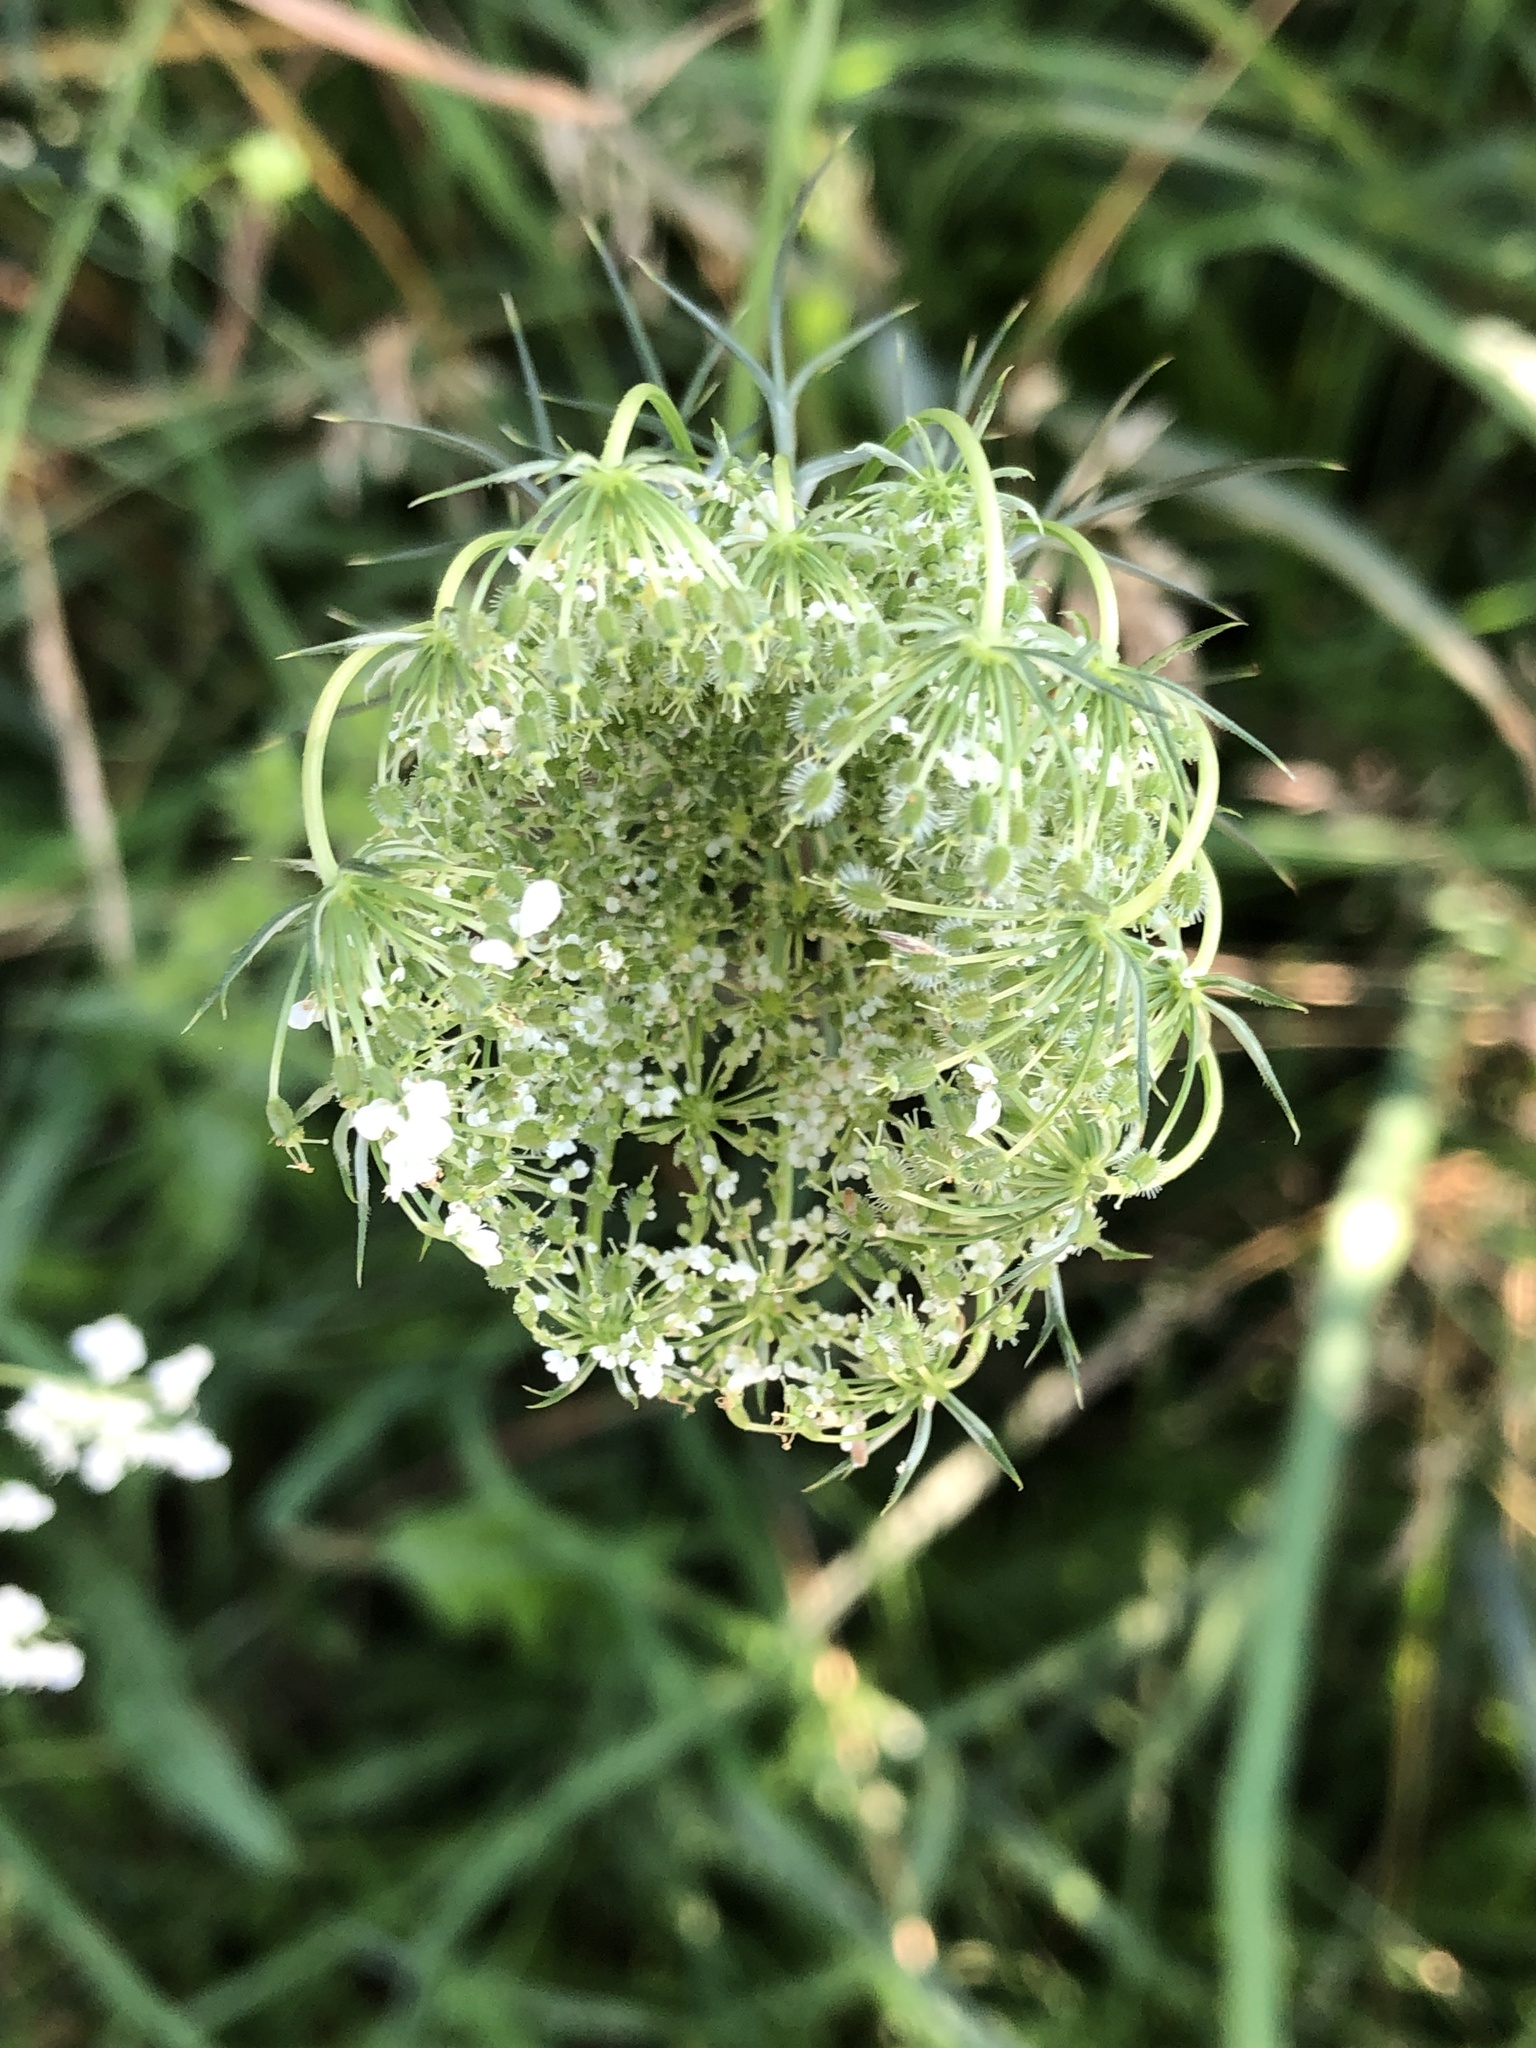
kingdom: Plantae
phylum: Tracheophyta
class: Magnoliopsida
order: Apiales
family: Apiaceae
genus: Daucus
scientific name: Daucus carota
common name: Wild carrot
